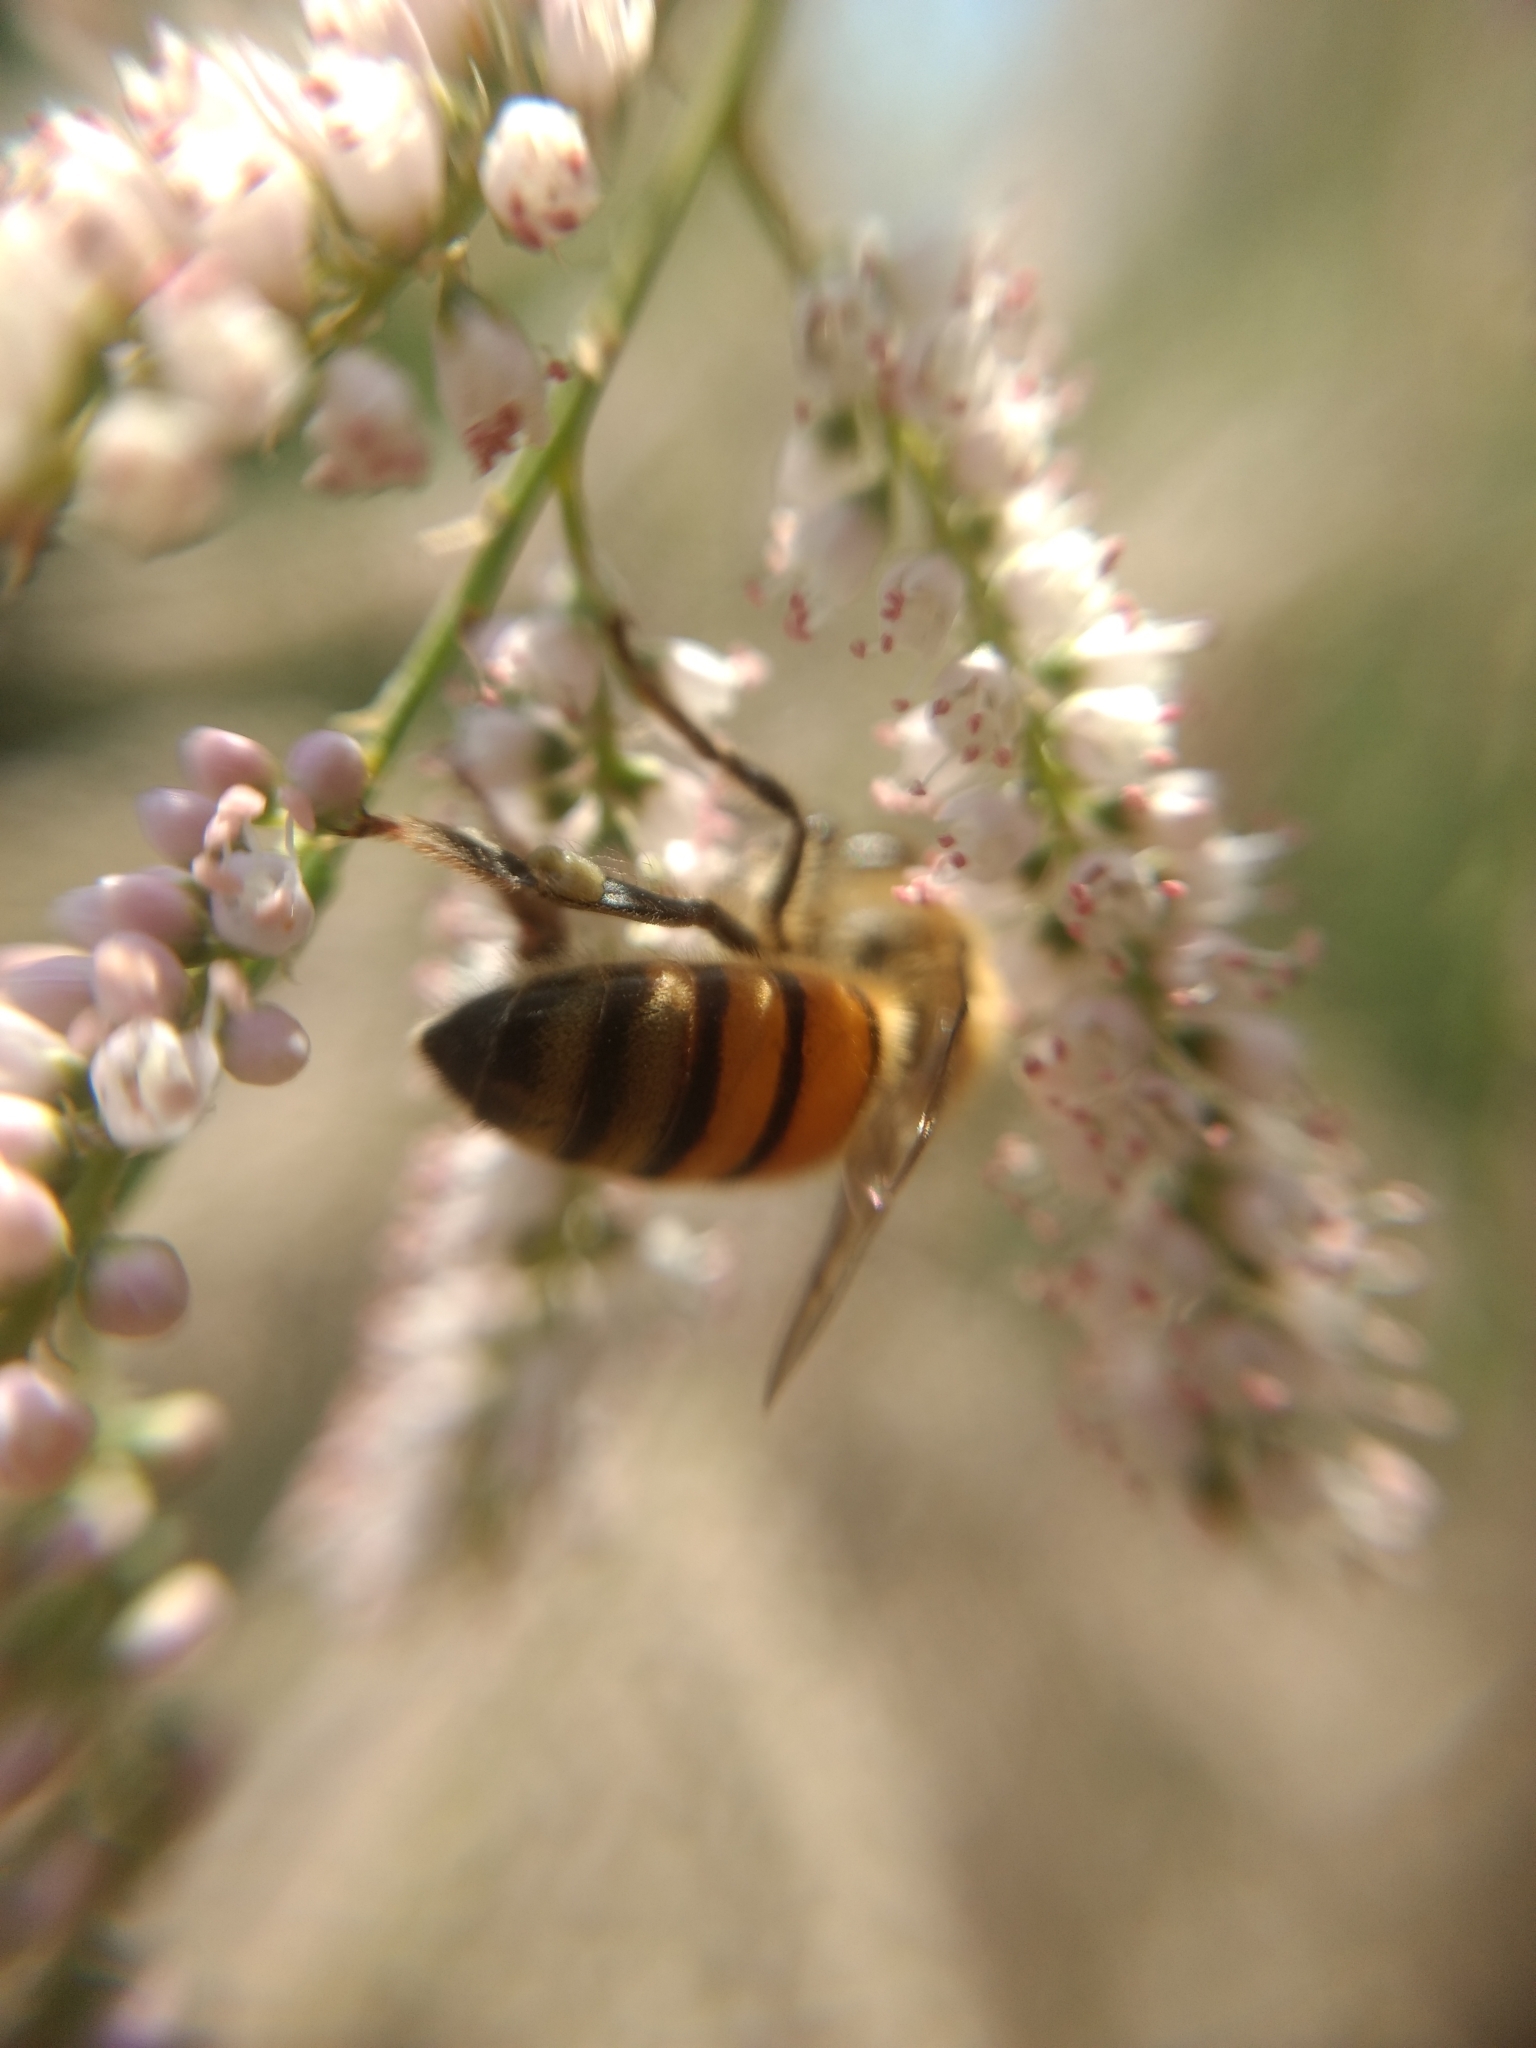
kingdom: Animalia
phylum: Arthropoda
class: Insecta
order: Hymenoptera
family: Apidae
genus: Apis
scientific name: Apis mellifera
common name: Honey bee
